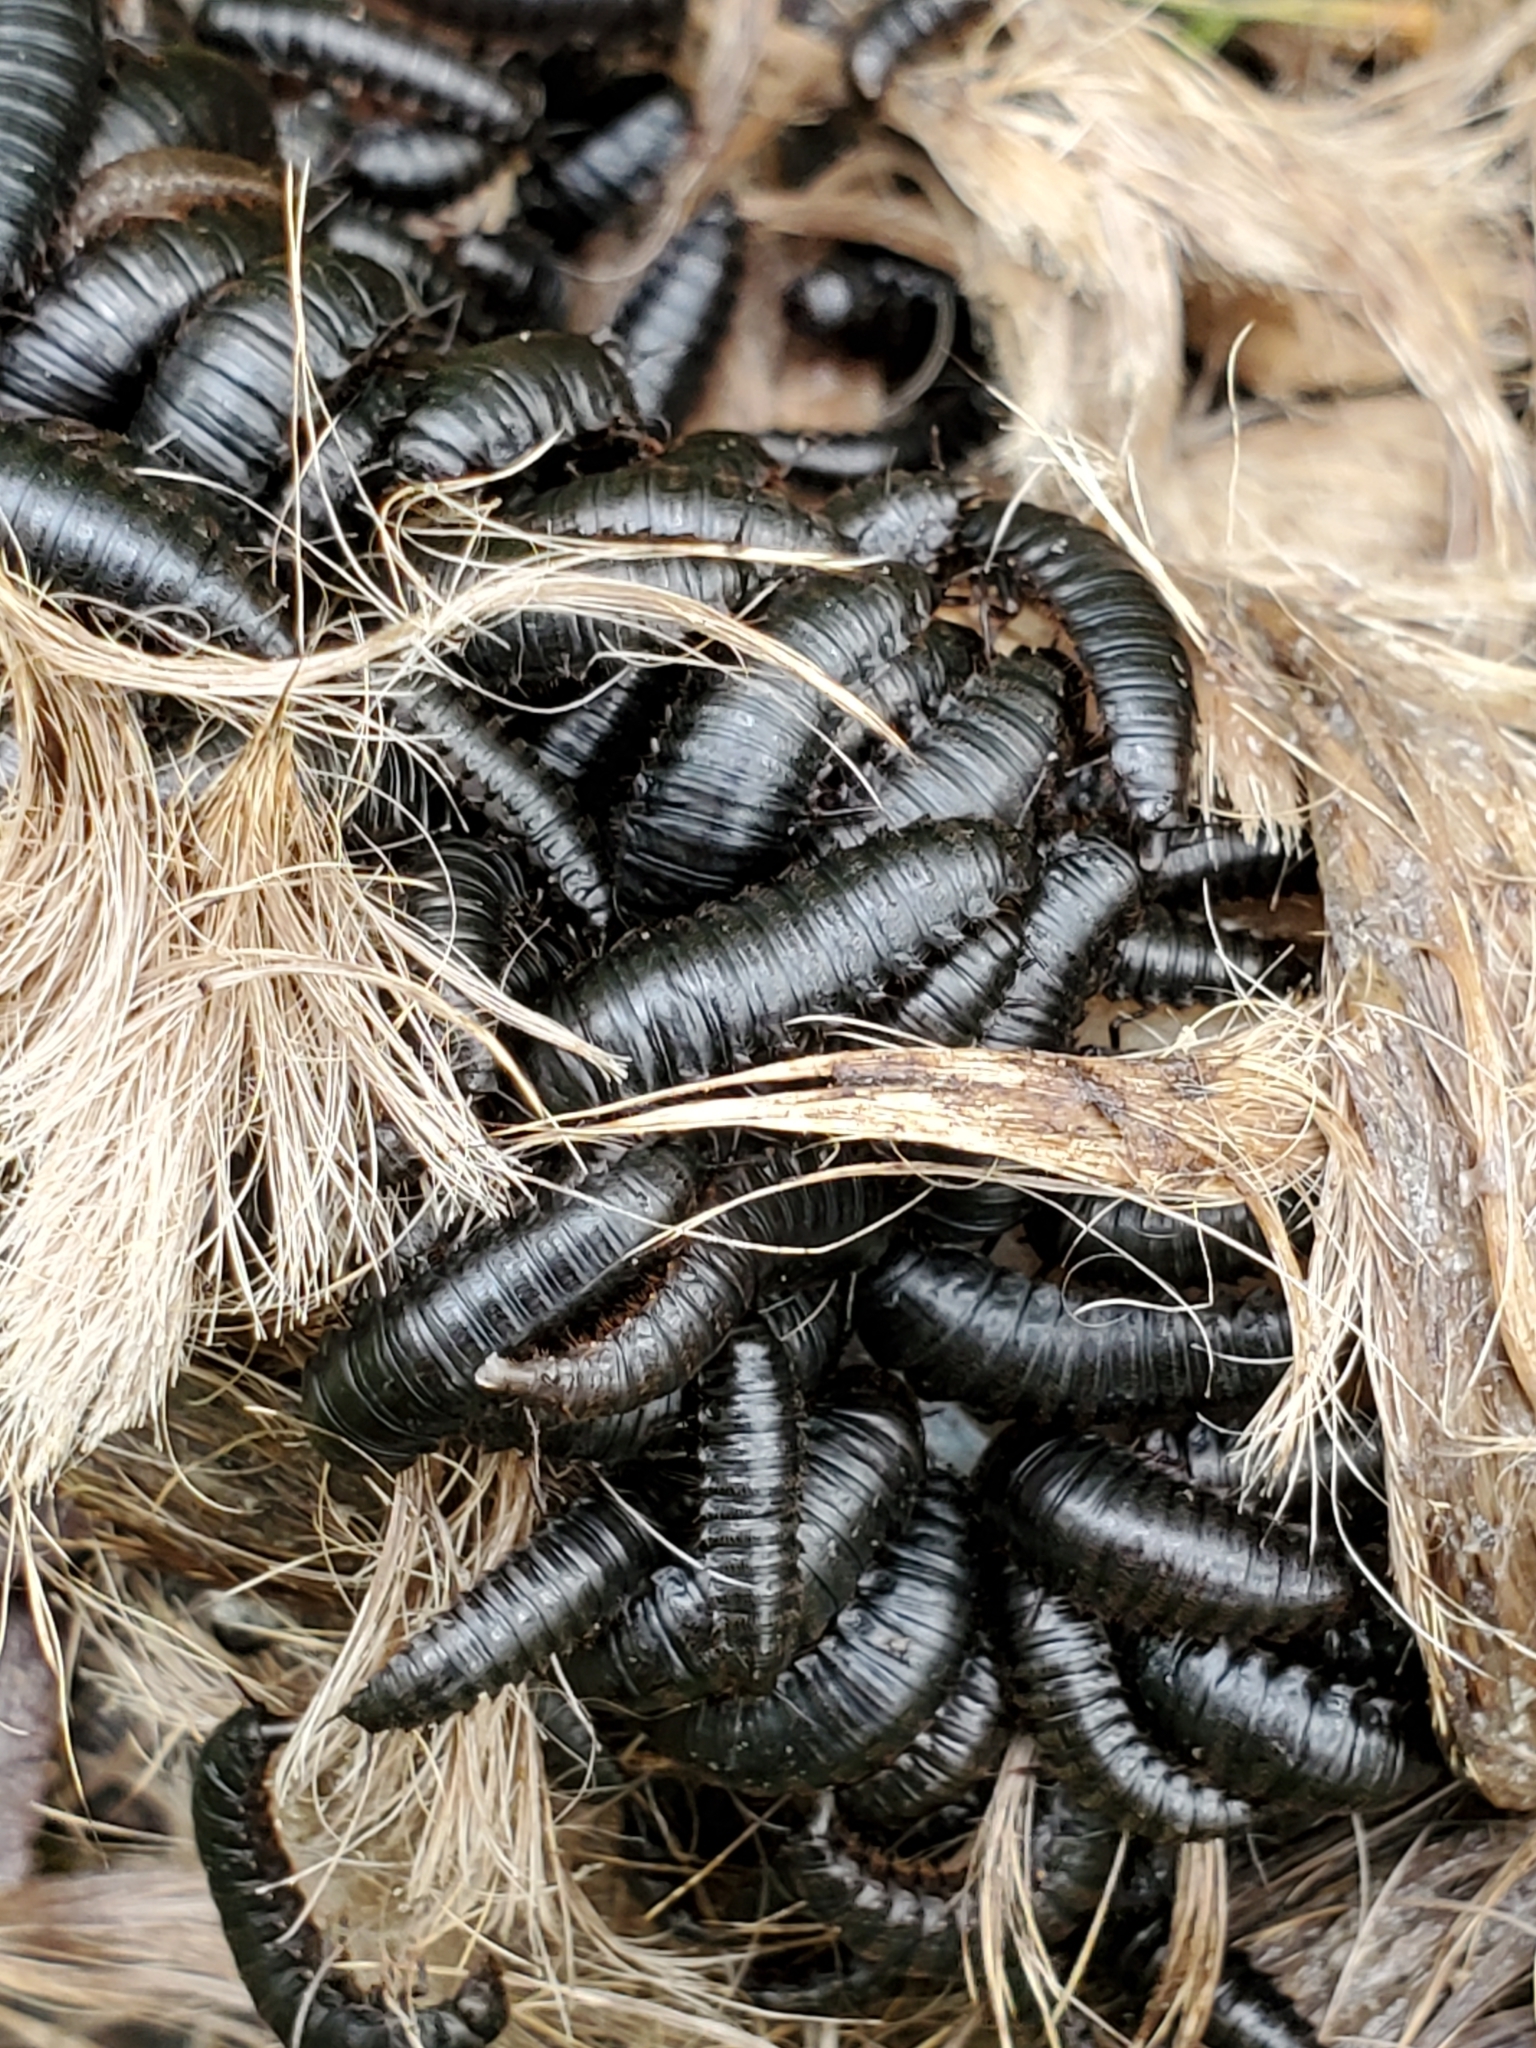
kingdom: Animalia
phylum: Arthropoda
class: Insecta
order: Coleoptera
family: Staphylinidae
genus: Heterosilpha
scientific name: Heterosilpha ramosa
